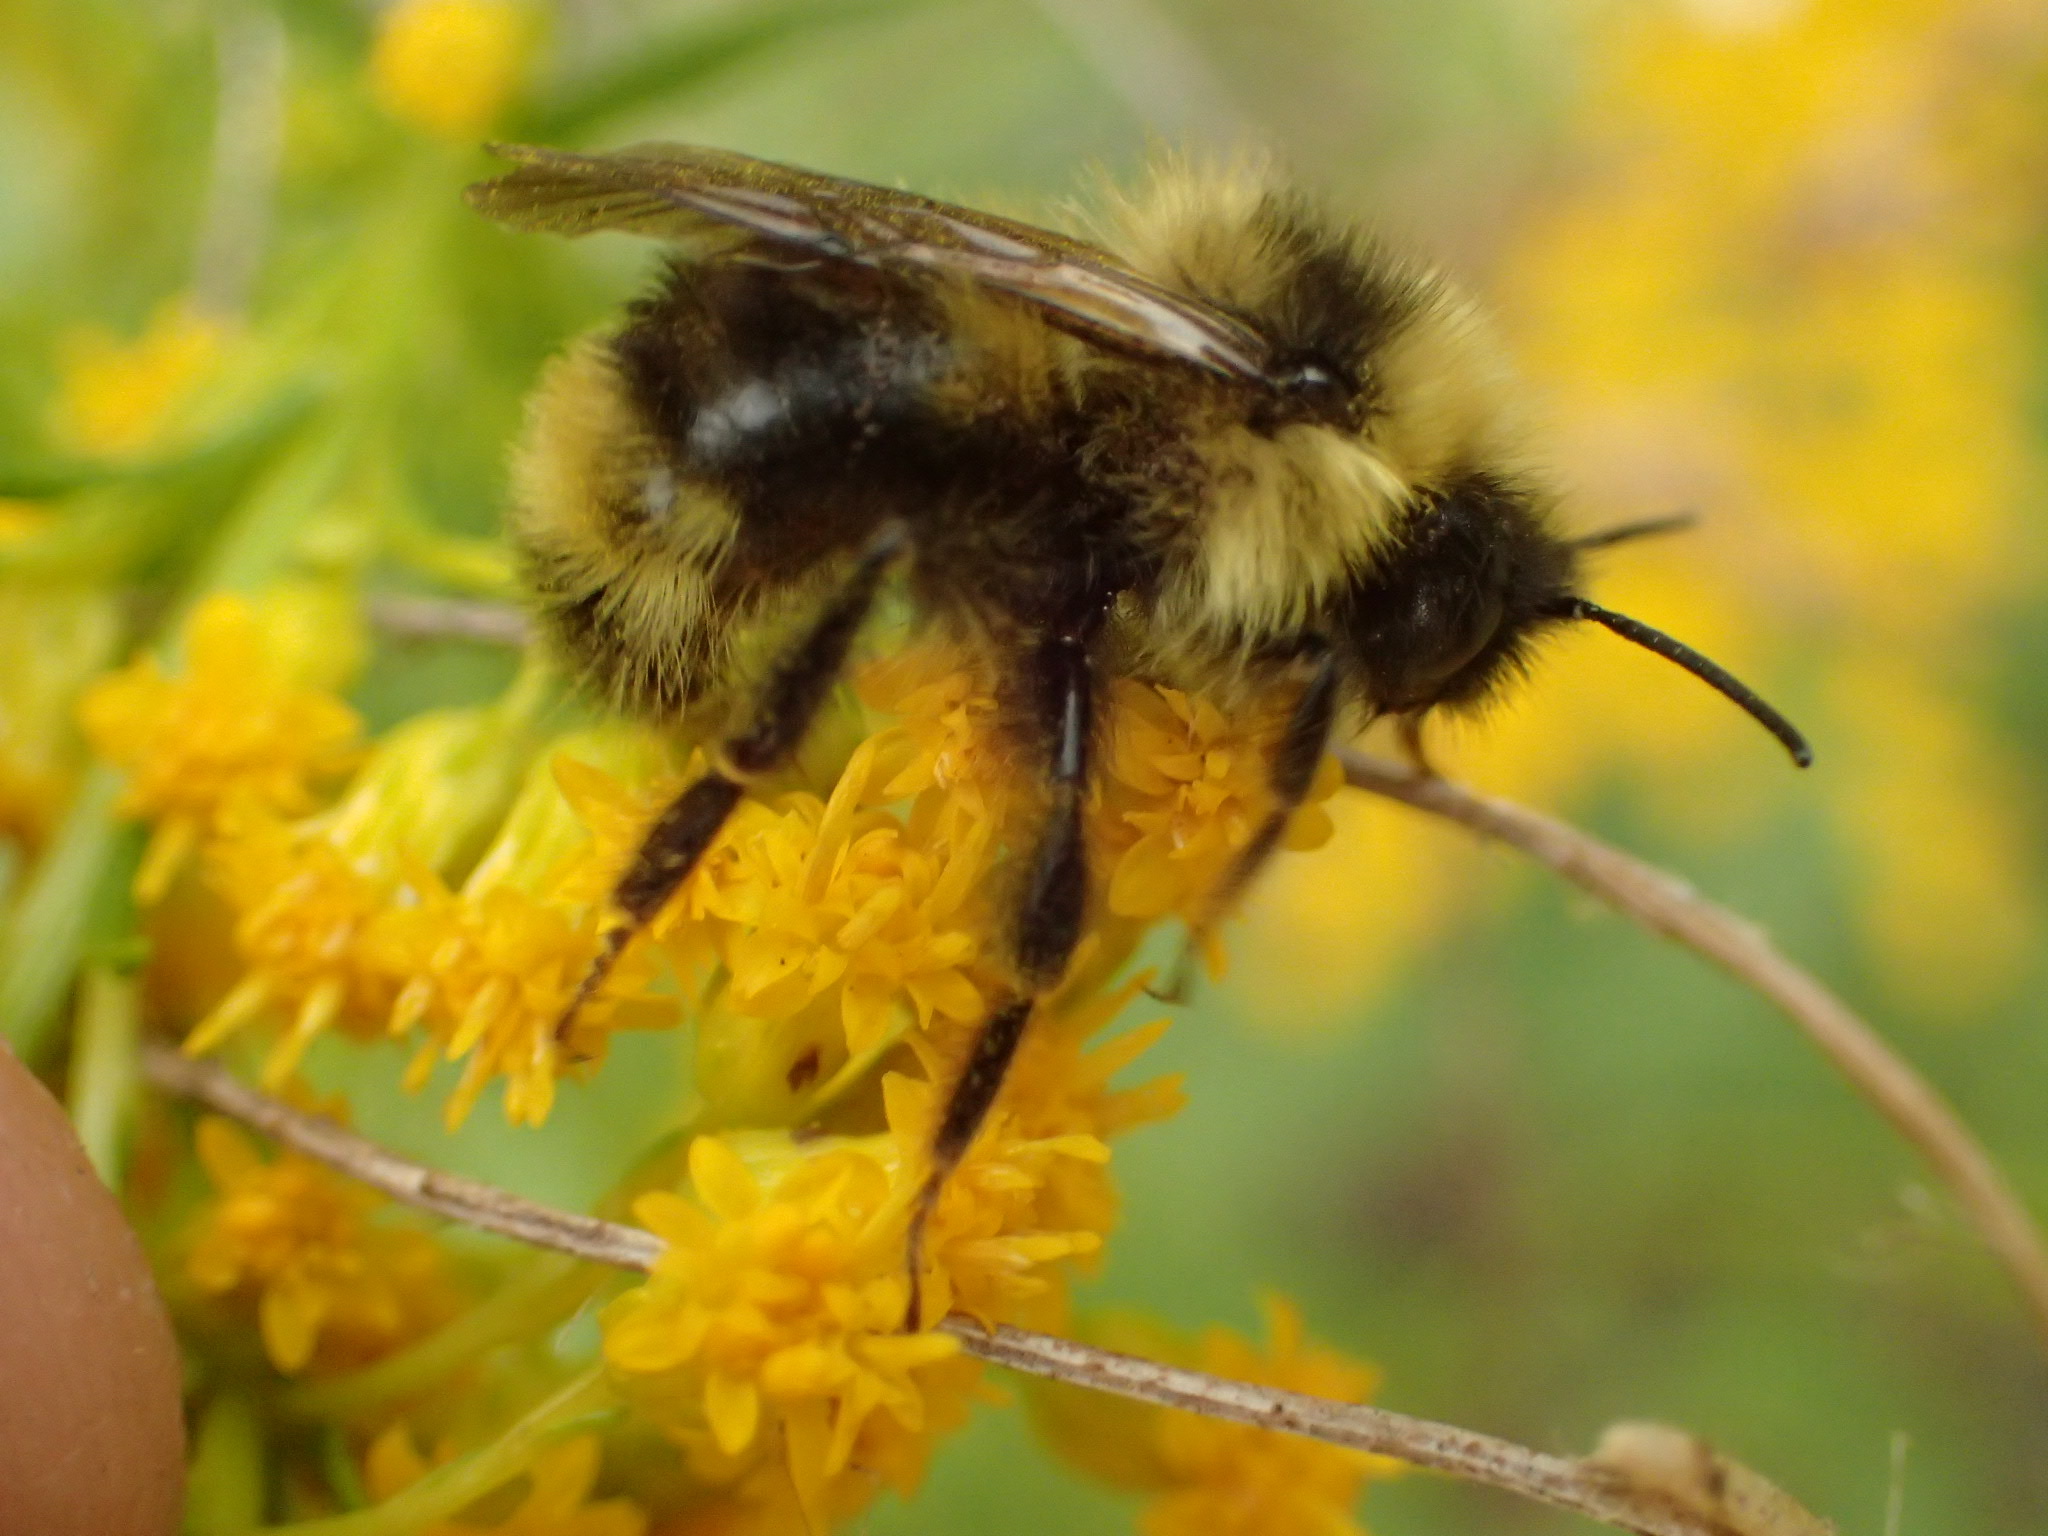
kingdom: Animalia
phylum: Arthropoda
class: Insecta
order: Hymenoptera
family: Apidae
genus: Bombus
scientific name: Bombus flavidus
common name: Fernald cuckoo bumble bee
